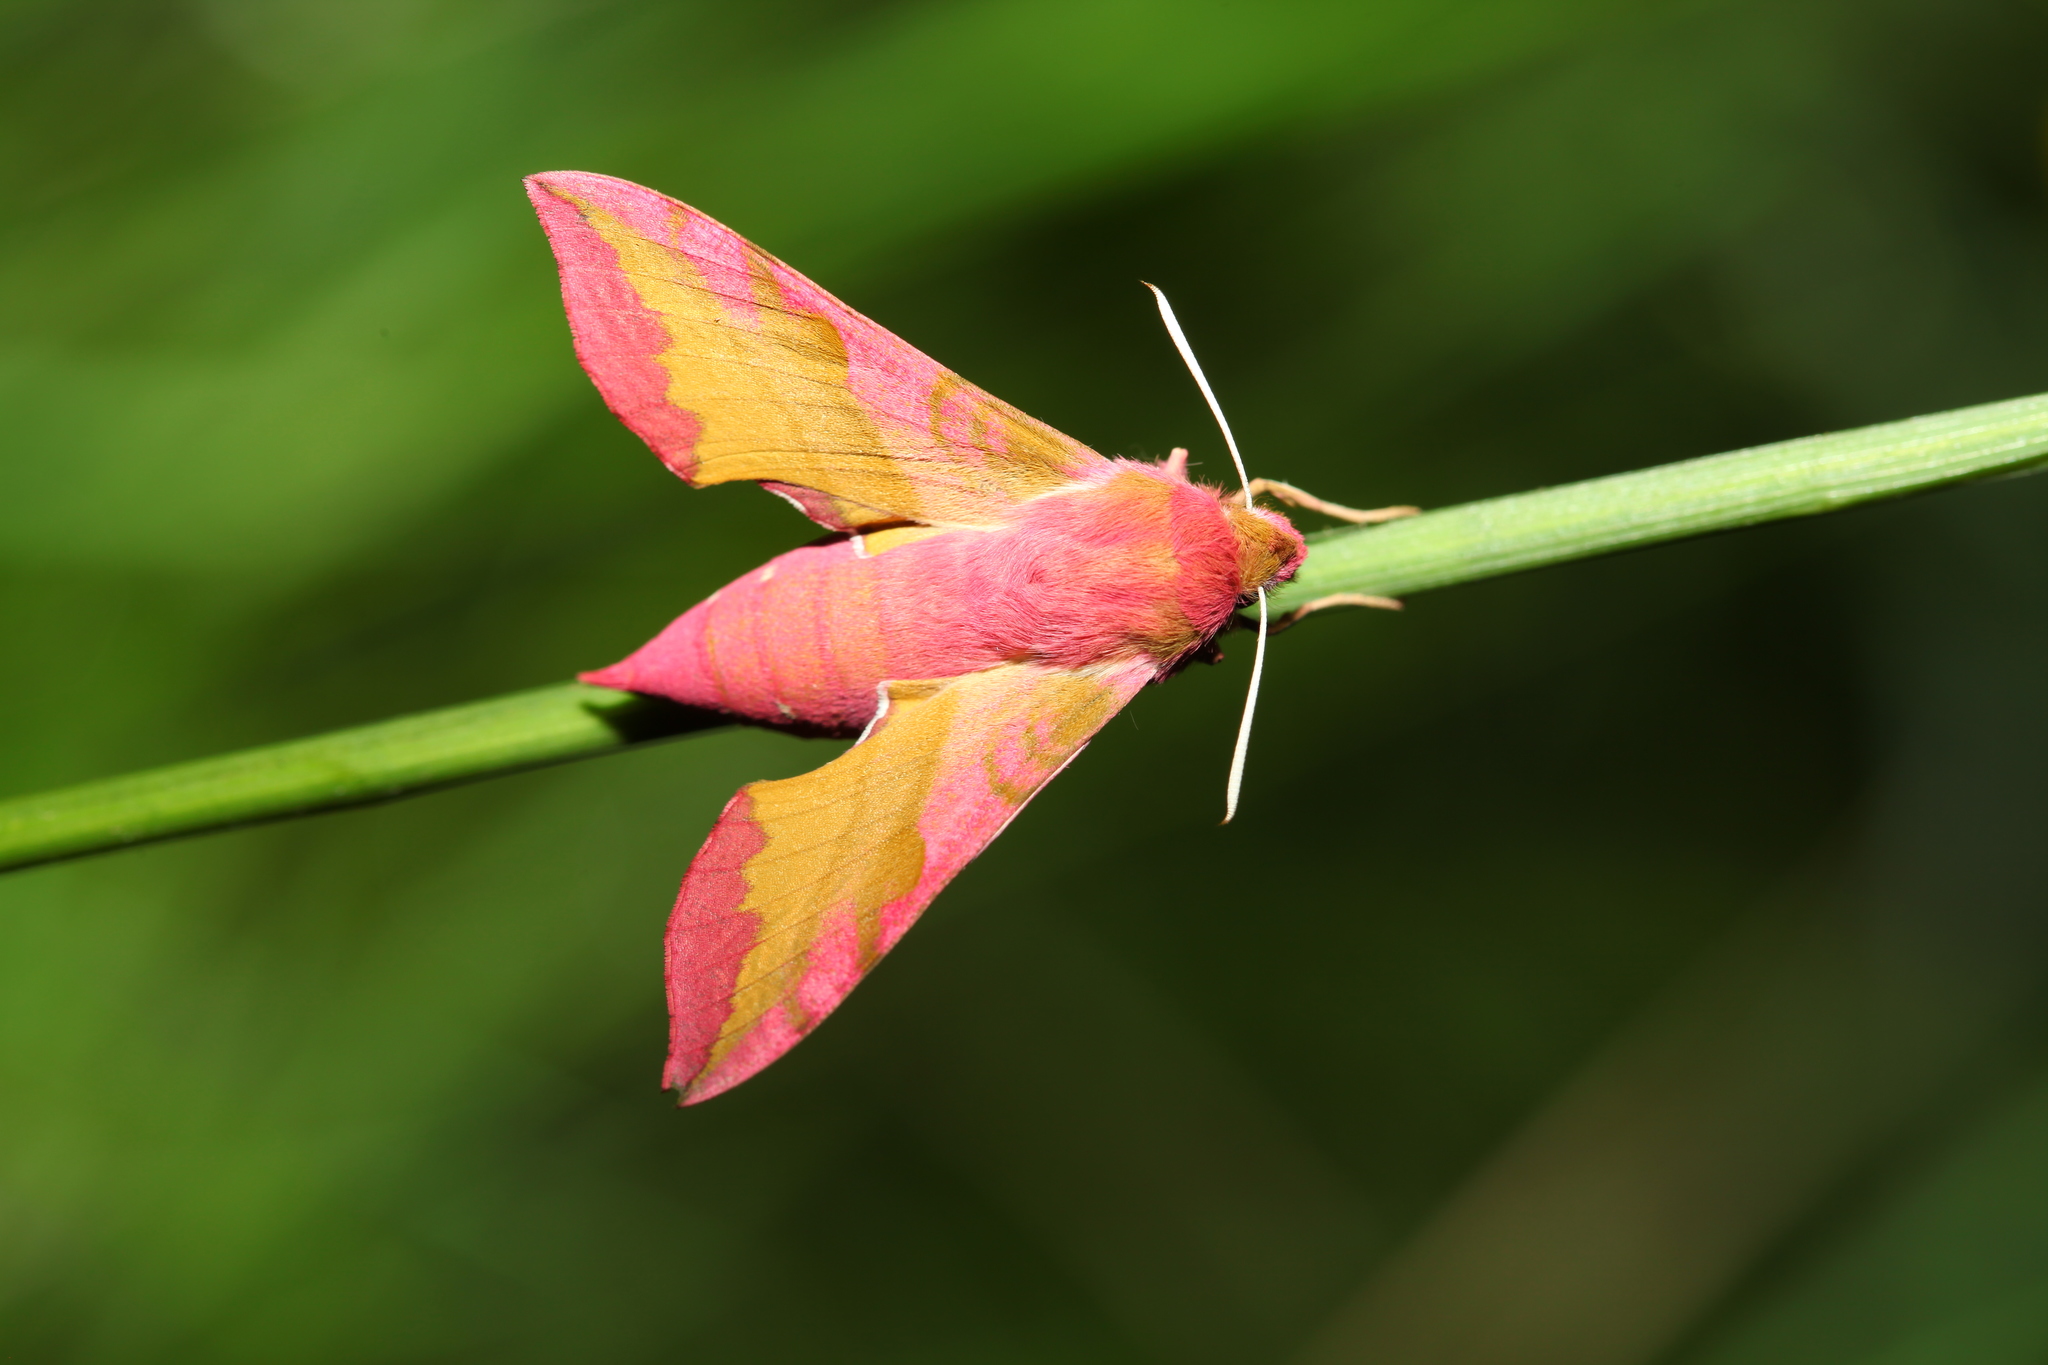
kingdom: Animalia
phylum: Arthropoda
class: Insecta
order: Lepidoptera
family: Sphingidae
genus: Deilephila
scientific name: Deilephila porcellus
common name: Small elephant hawk-moth
